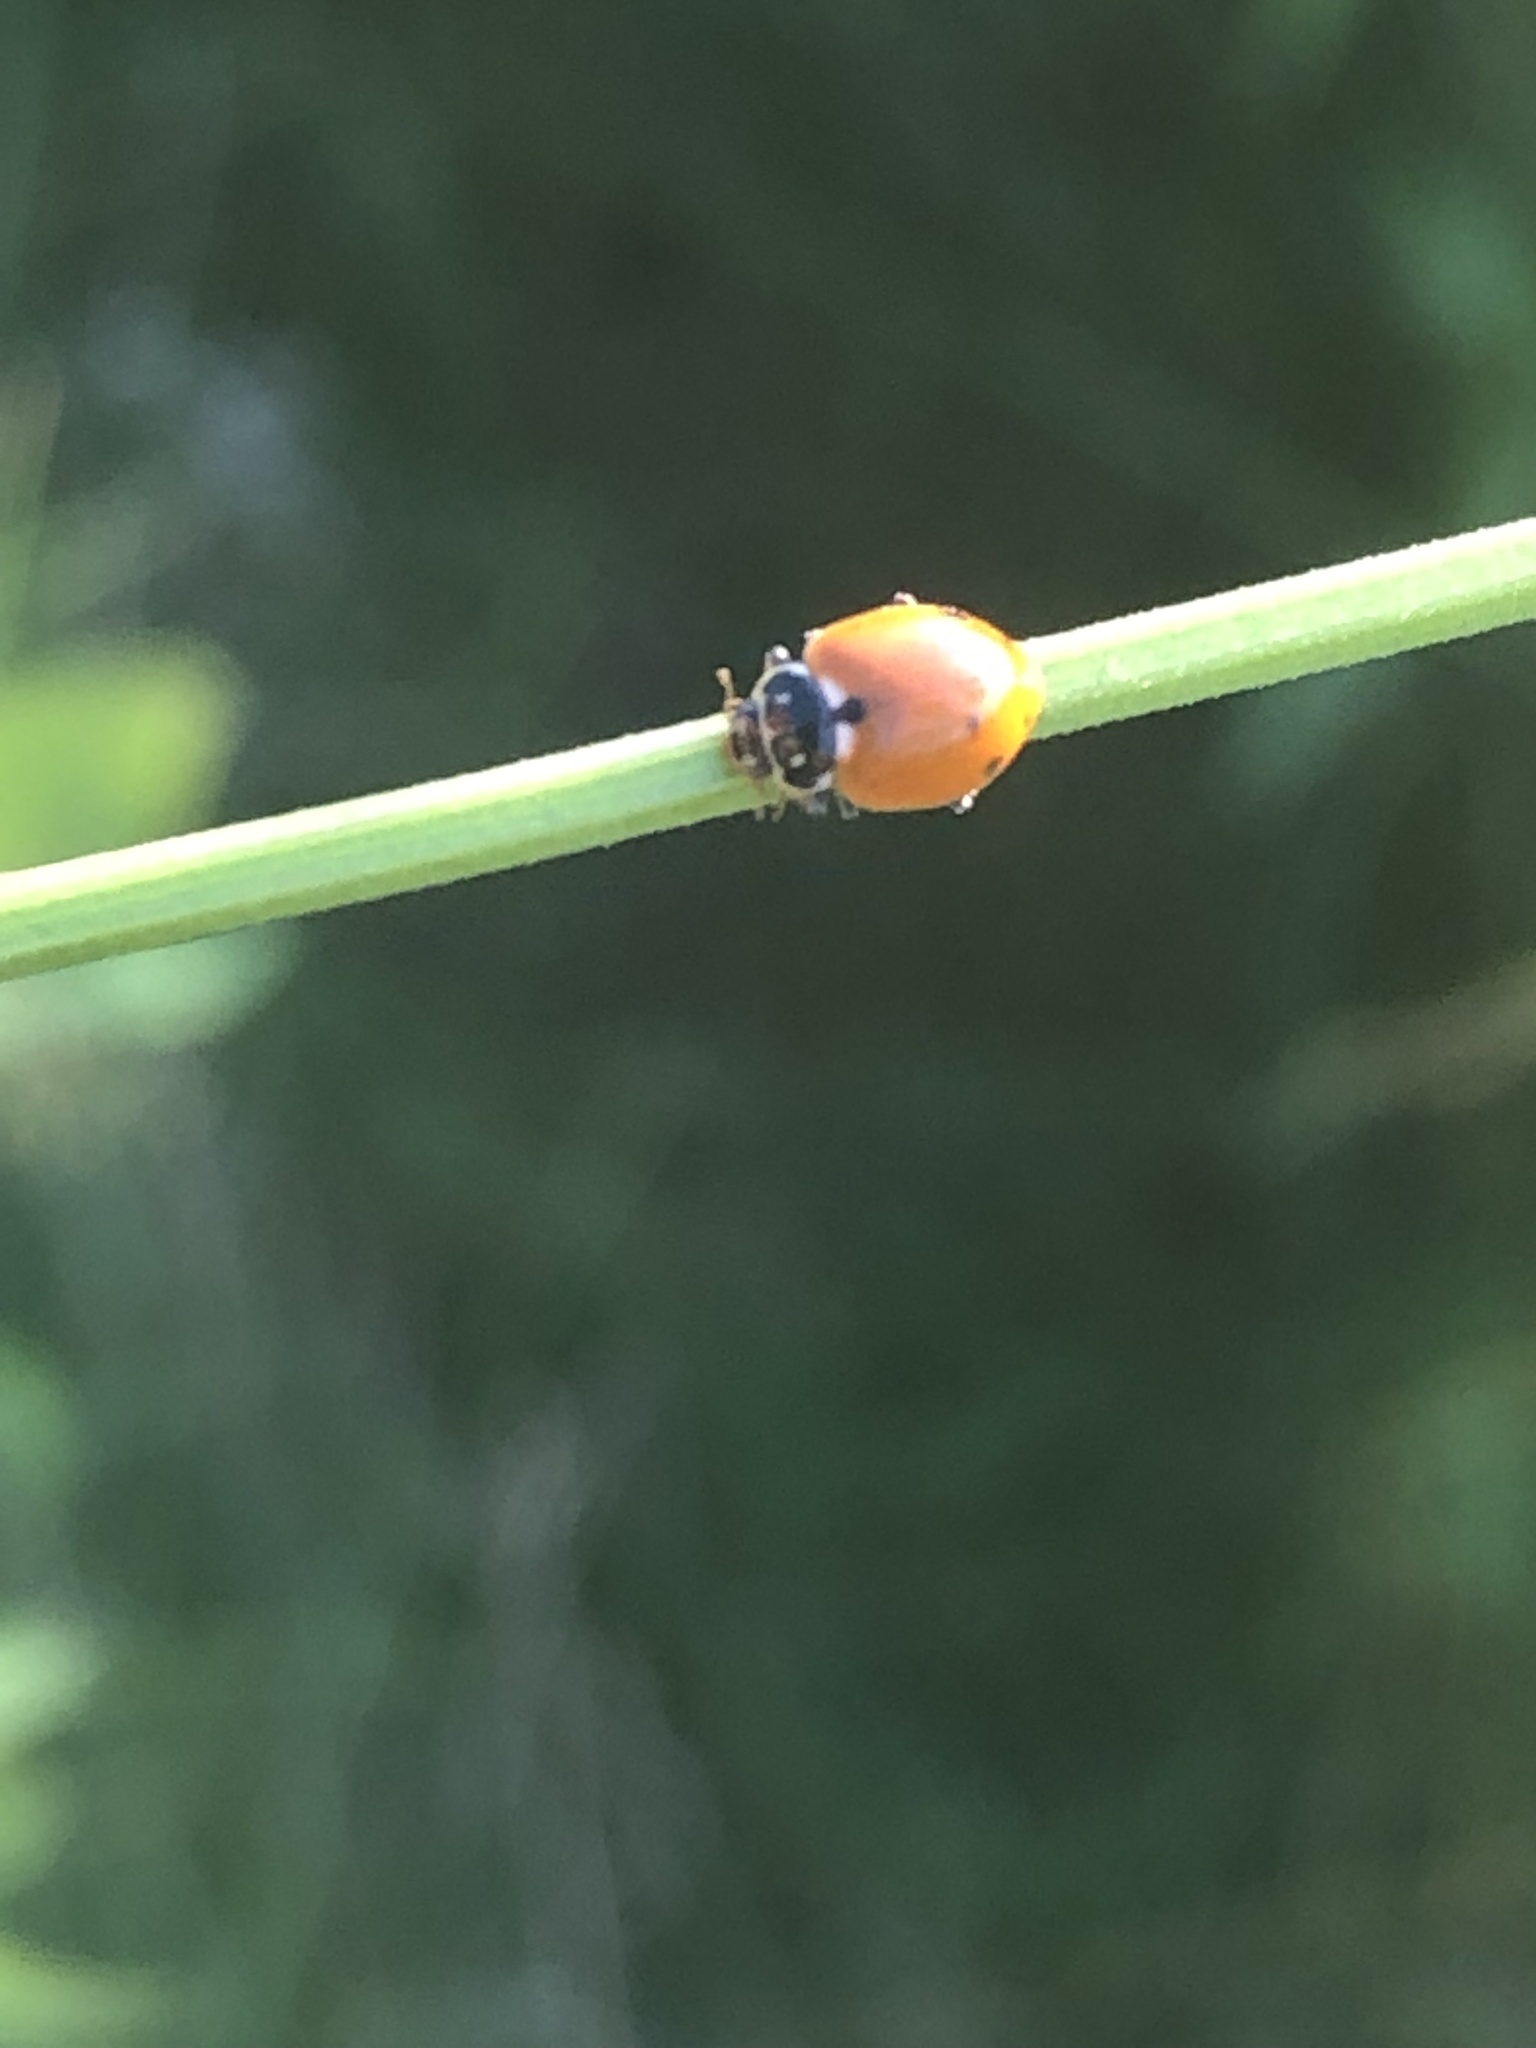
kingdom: Animalia
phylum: Arthropoda
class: Insecta
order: Coleoptera
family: Coccinellidae
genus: Hippodamia
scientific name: Hippodamia variegata
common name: Ladybird beetle
